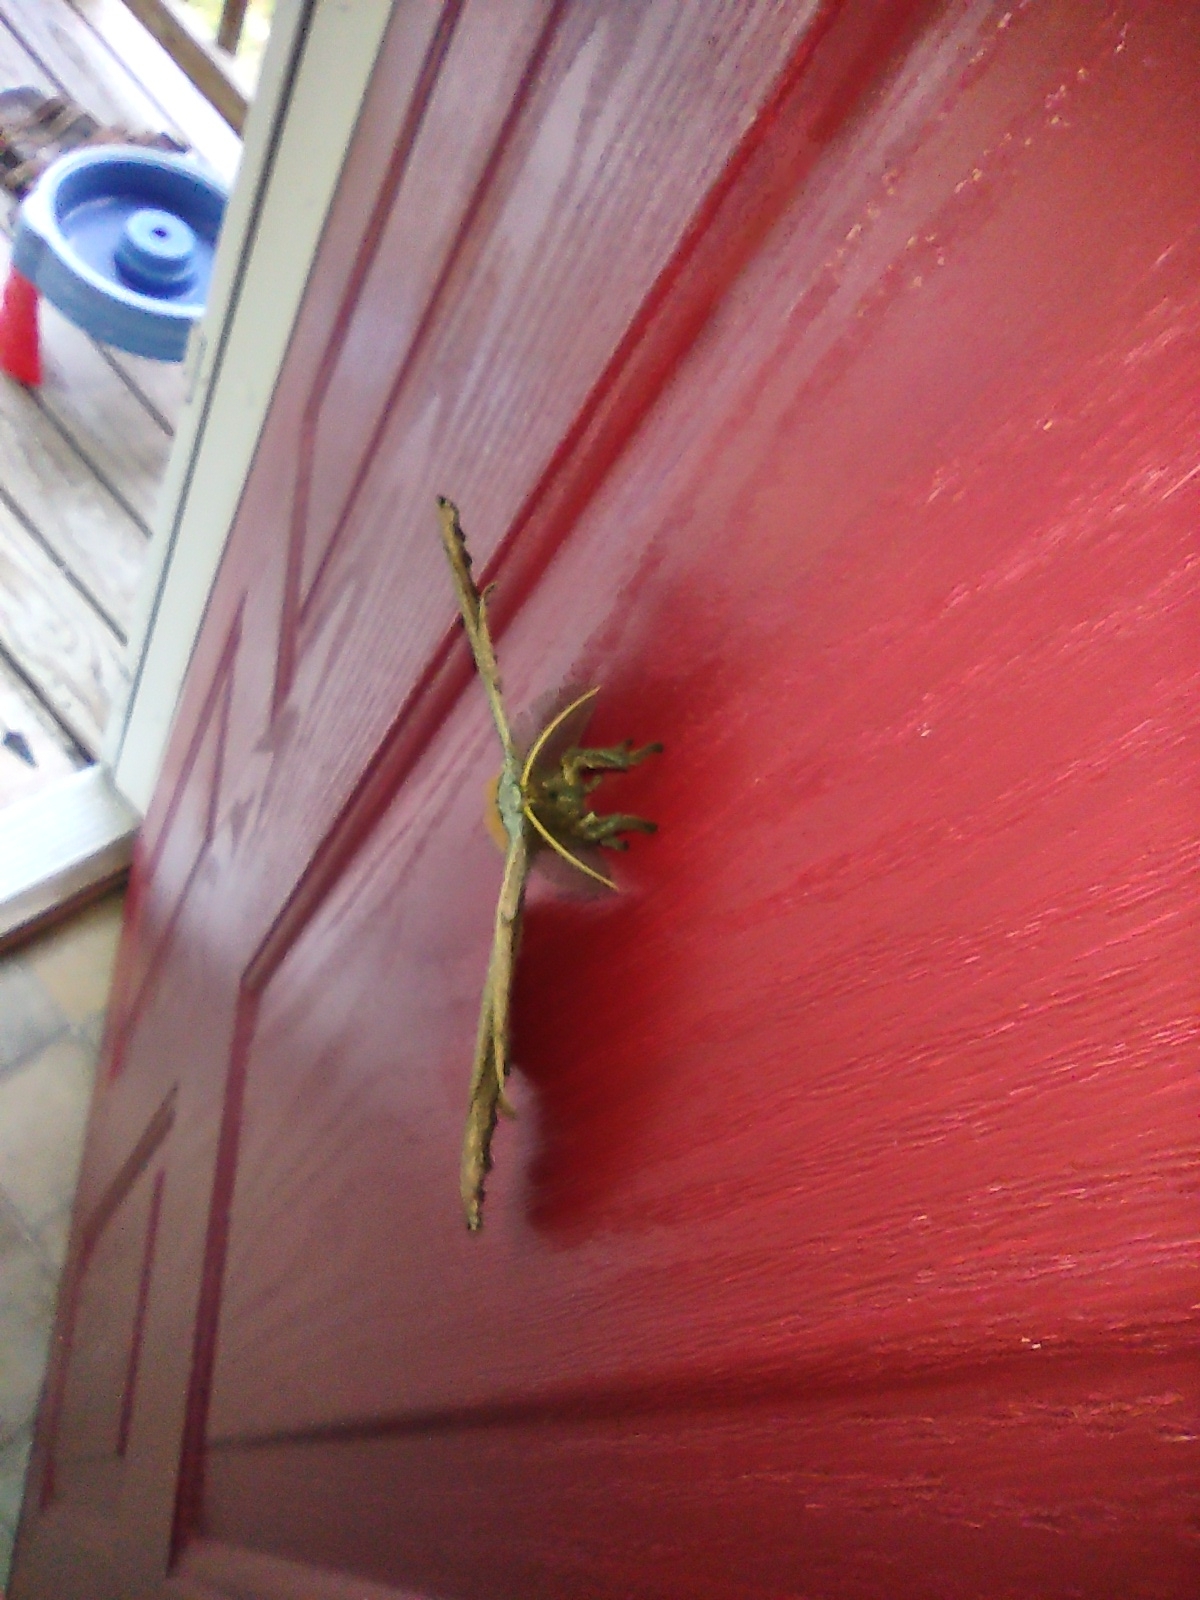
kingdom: Animalia
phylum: Arthropoda
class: Insecta
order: Lepidoptera
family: Saturniidae
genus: Antheraea
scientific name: Antheraea polyphemus
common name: Polyphemus moth
